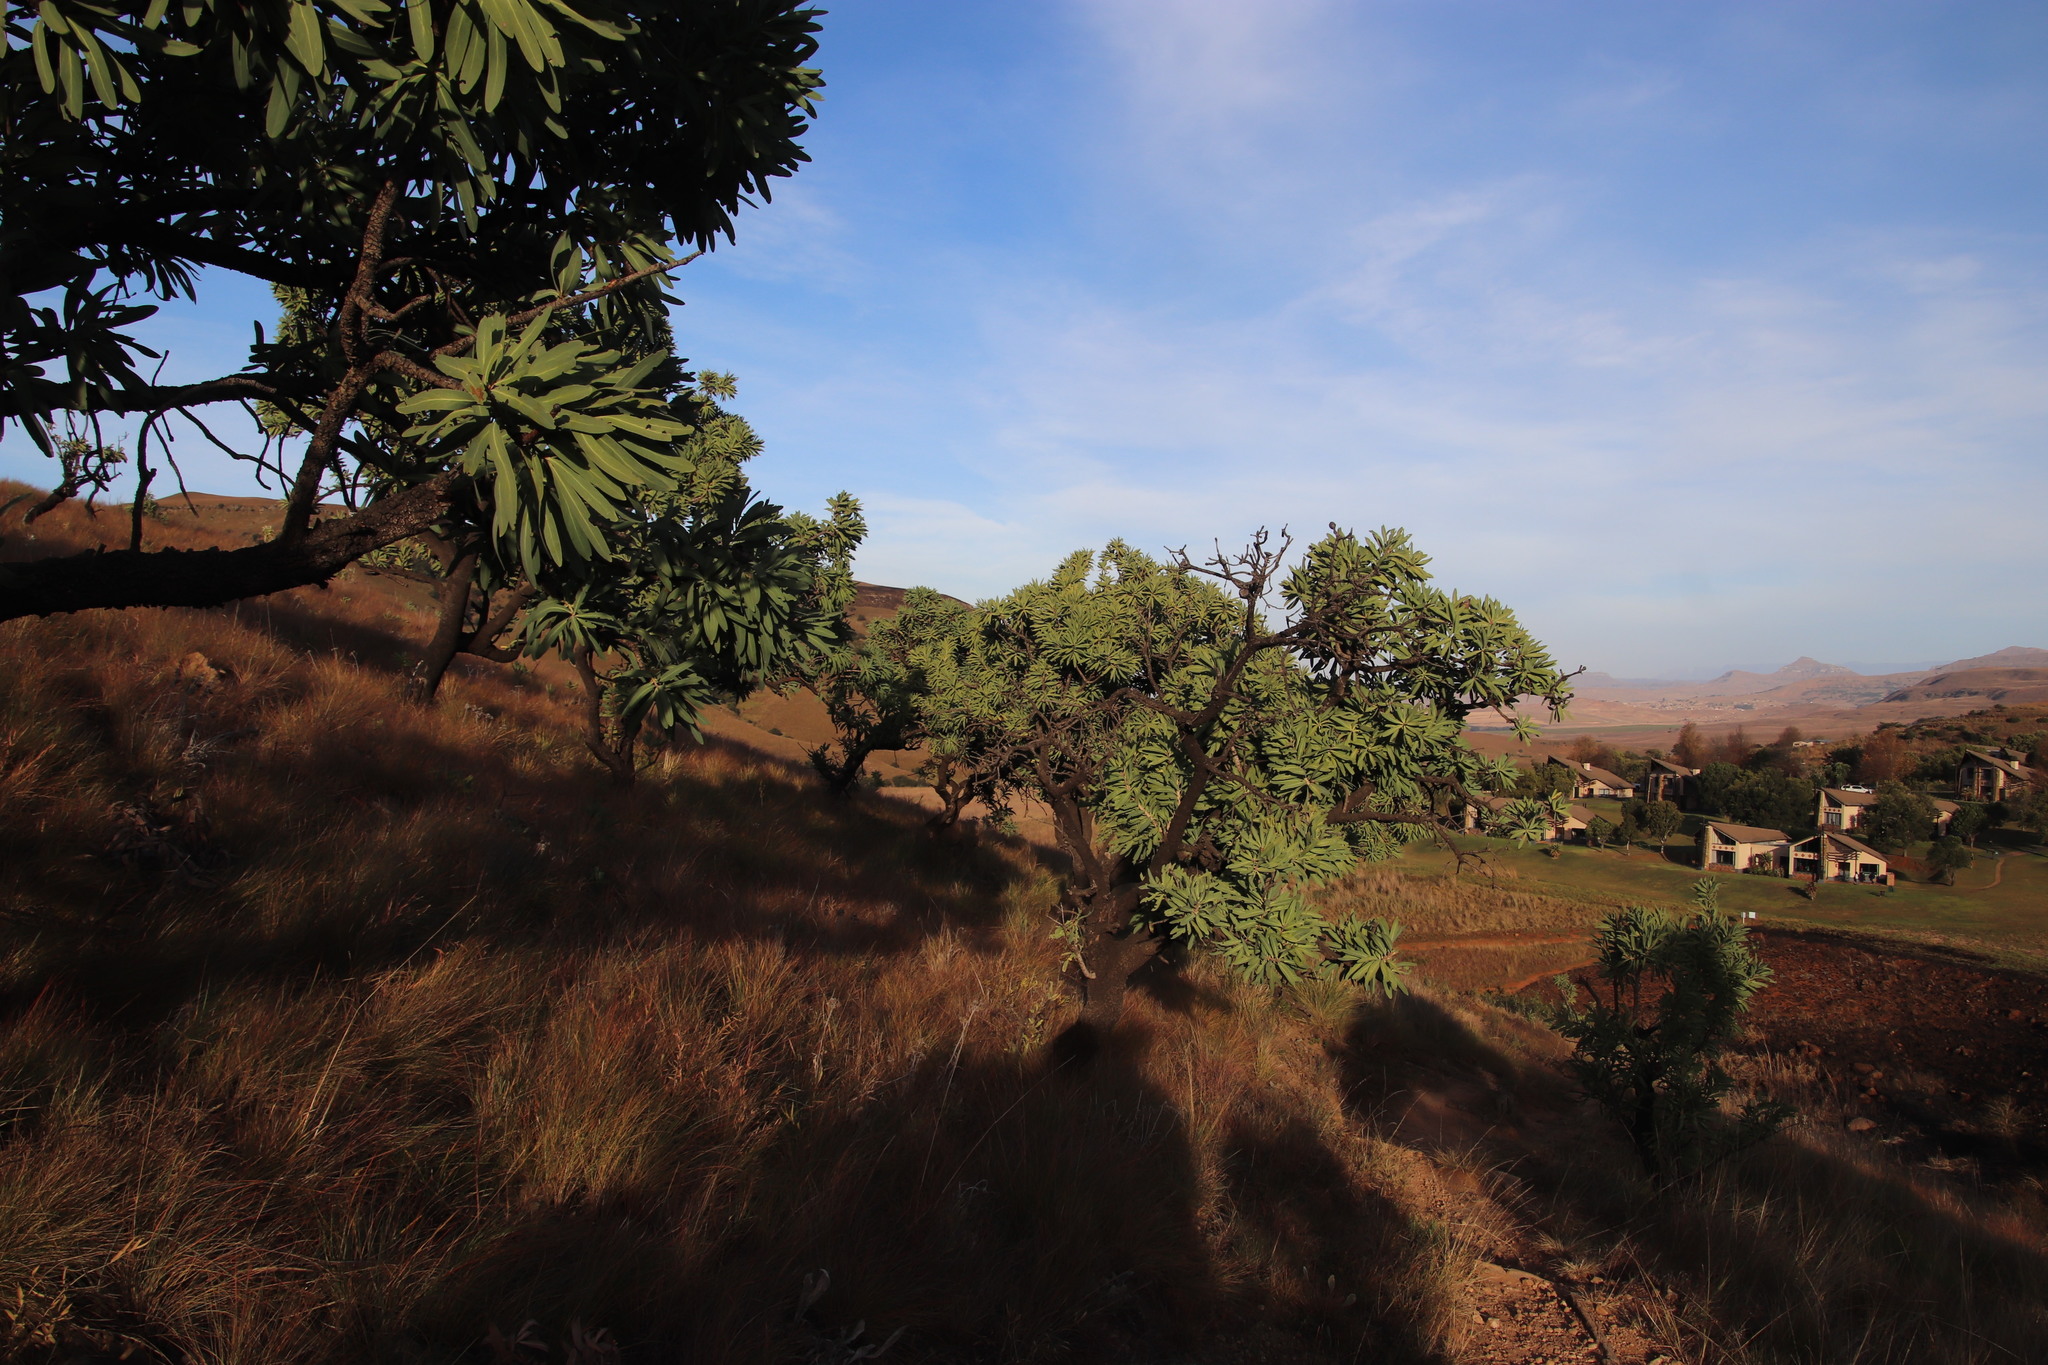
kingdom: Plantae
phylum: Tracheophyta
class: Magnoliopsida
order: Proteales
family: Proteaceae
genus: Protea
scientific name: Protea caffra
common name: Common sugarbush
